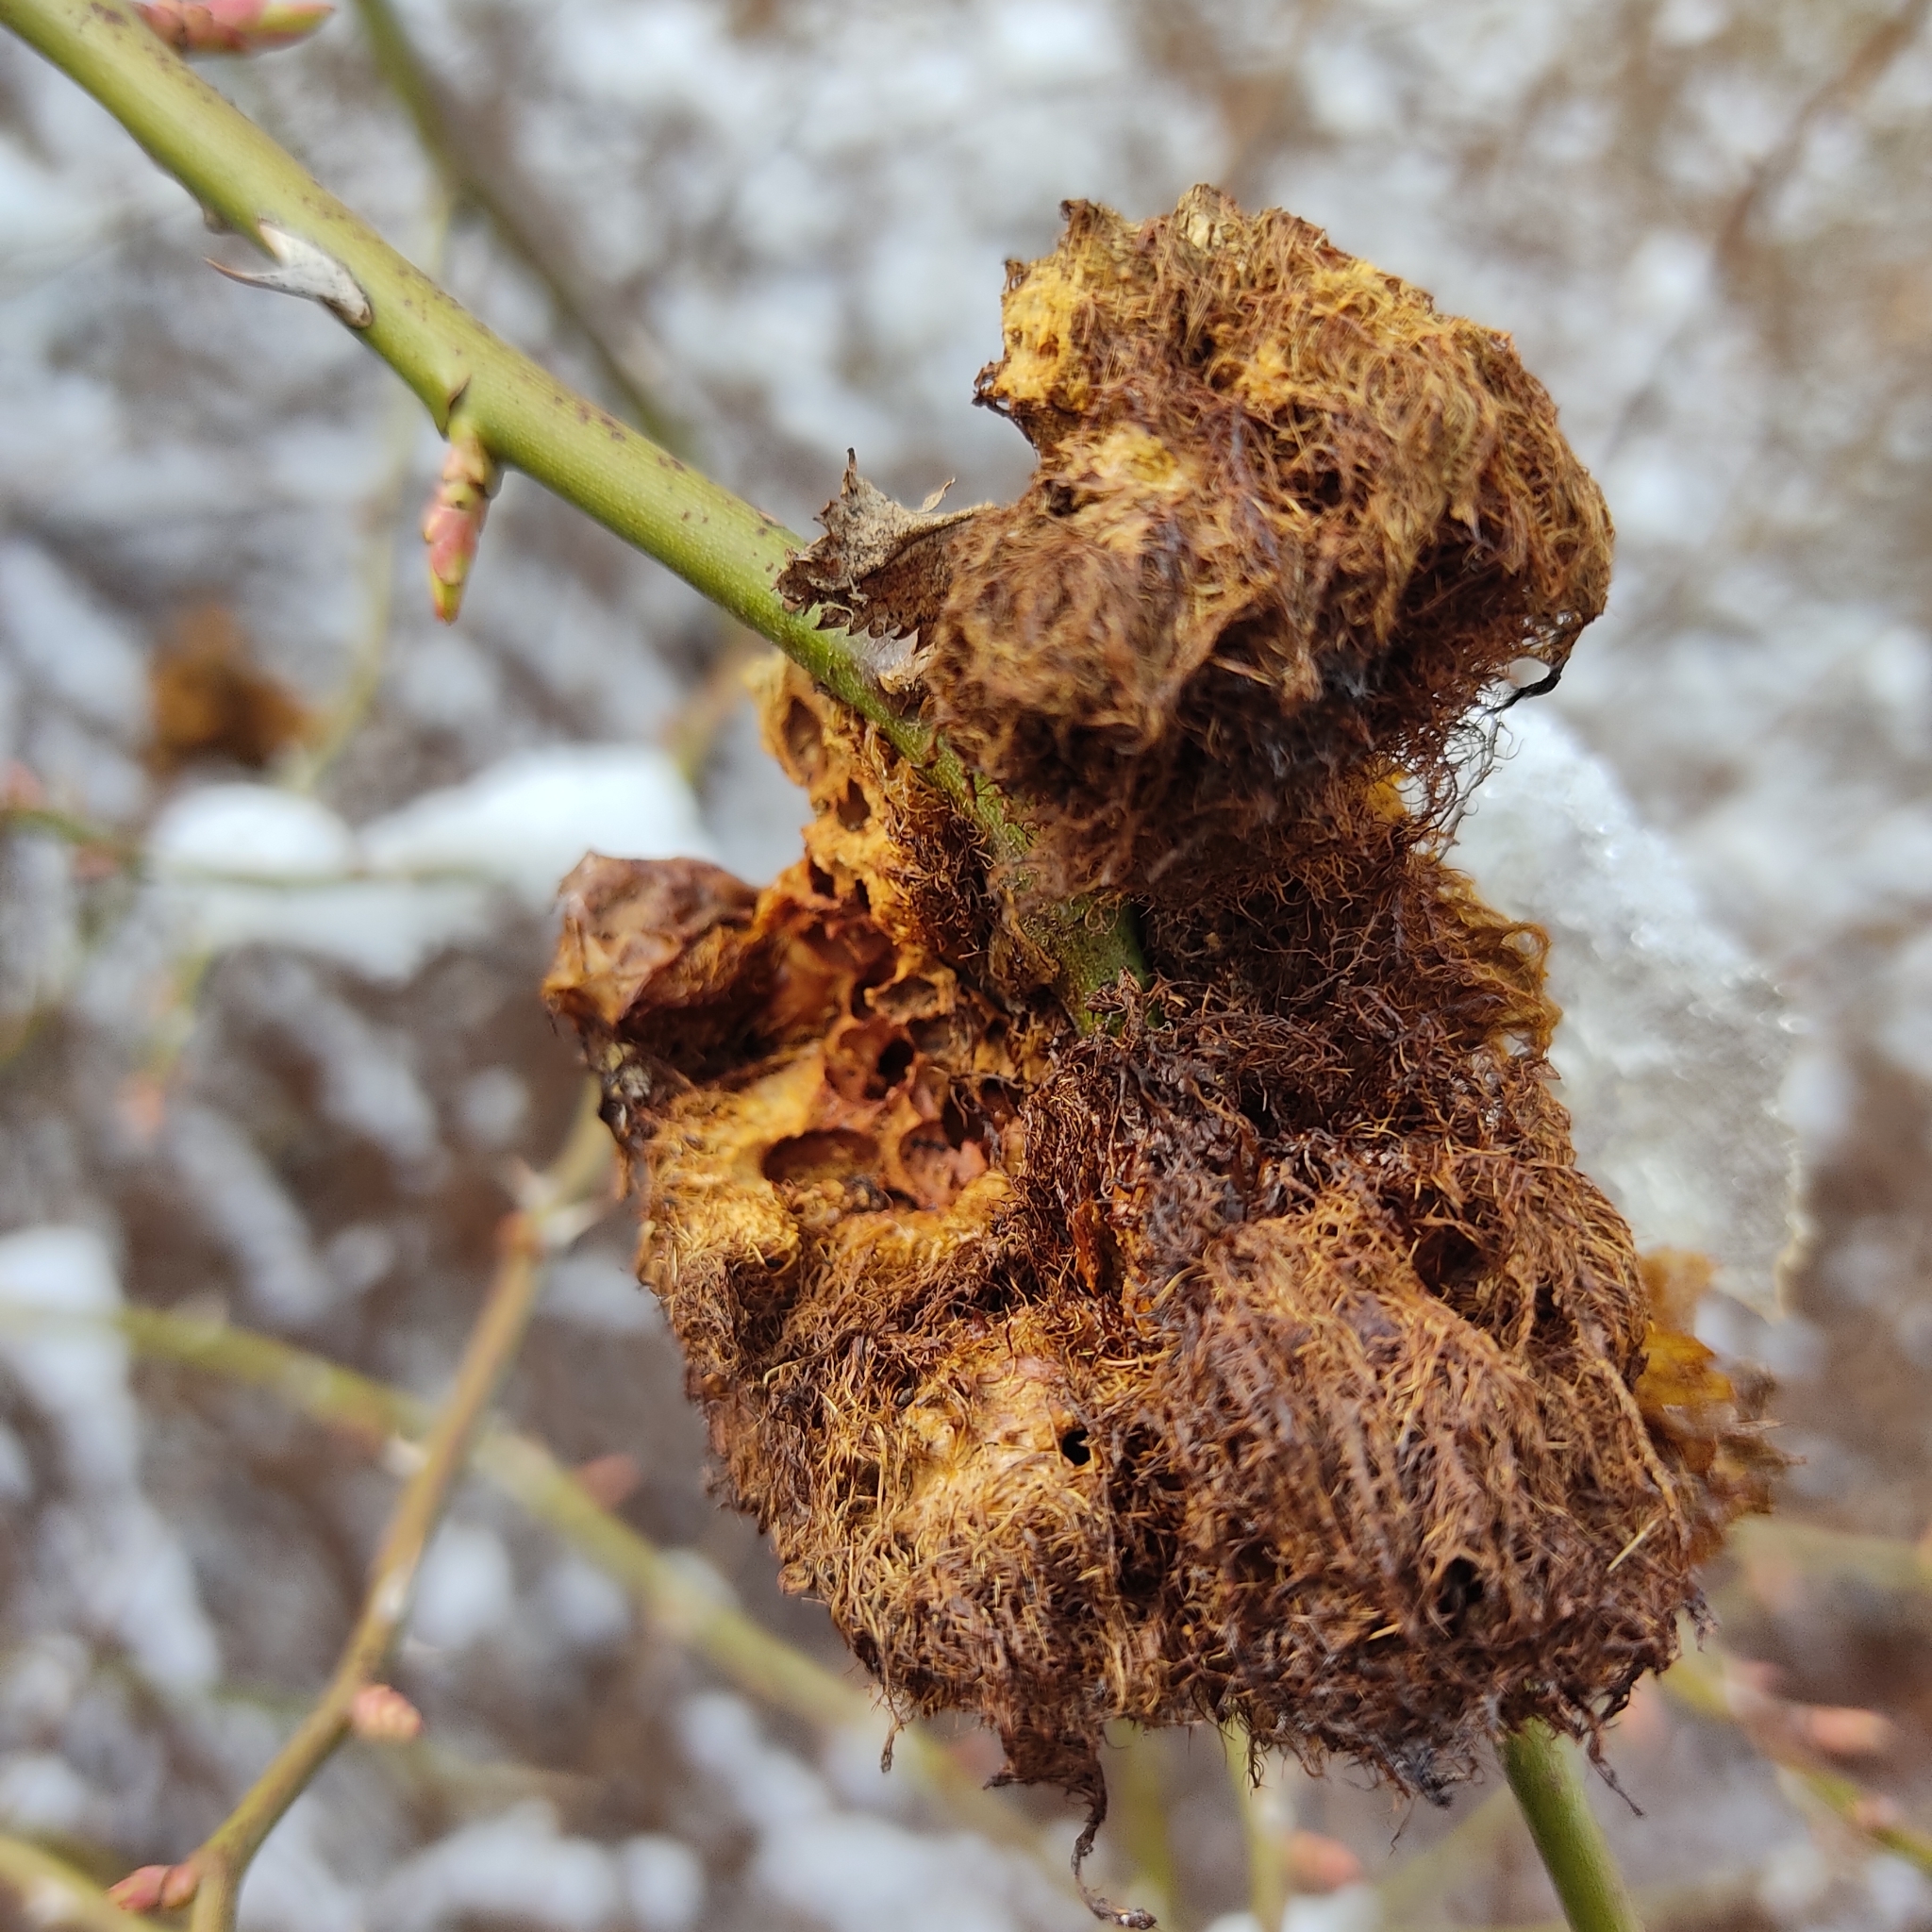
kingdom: Animalia
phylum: Arthropoda
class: Insecta
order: Hymenoptera
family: Cynipidae
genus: Diplolepis
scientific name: Diplolepis rosae
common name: Bedeguar gall
